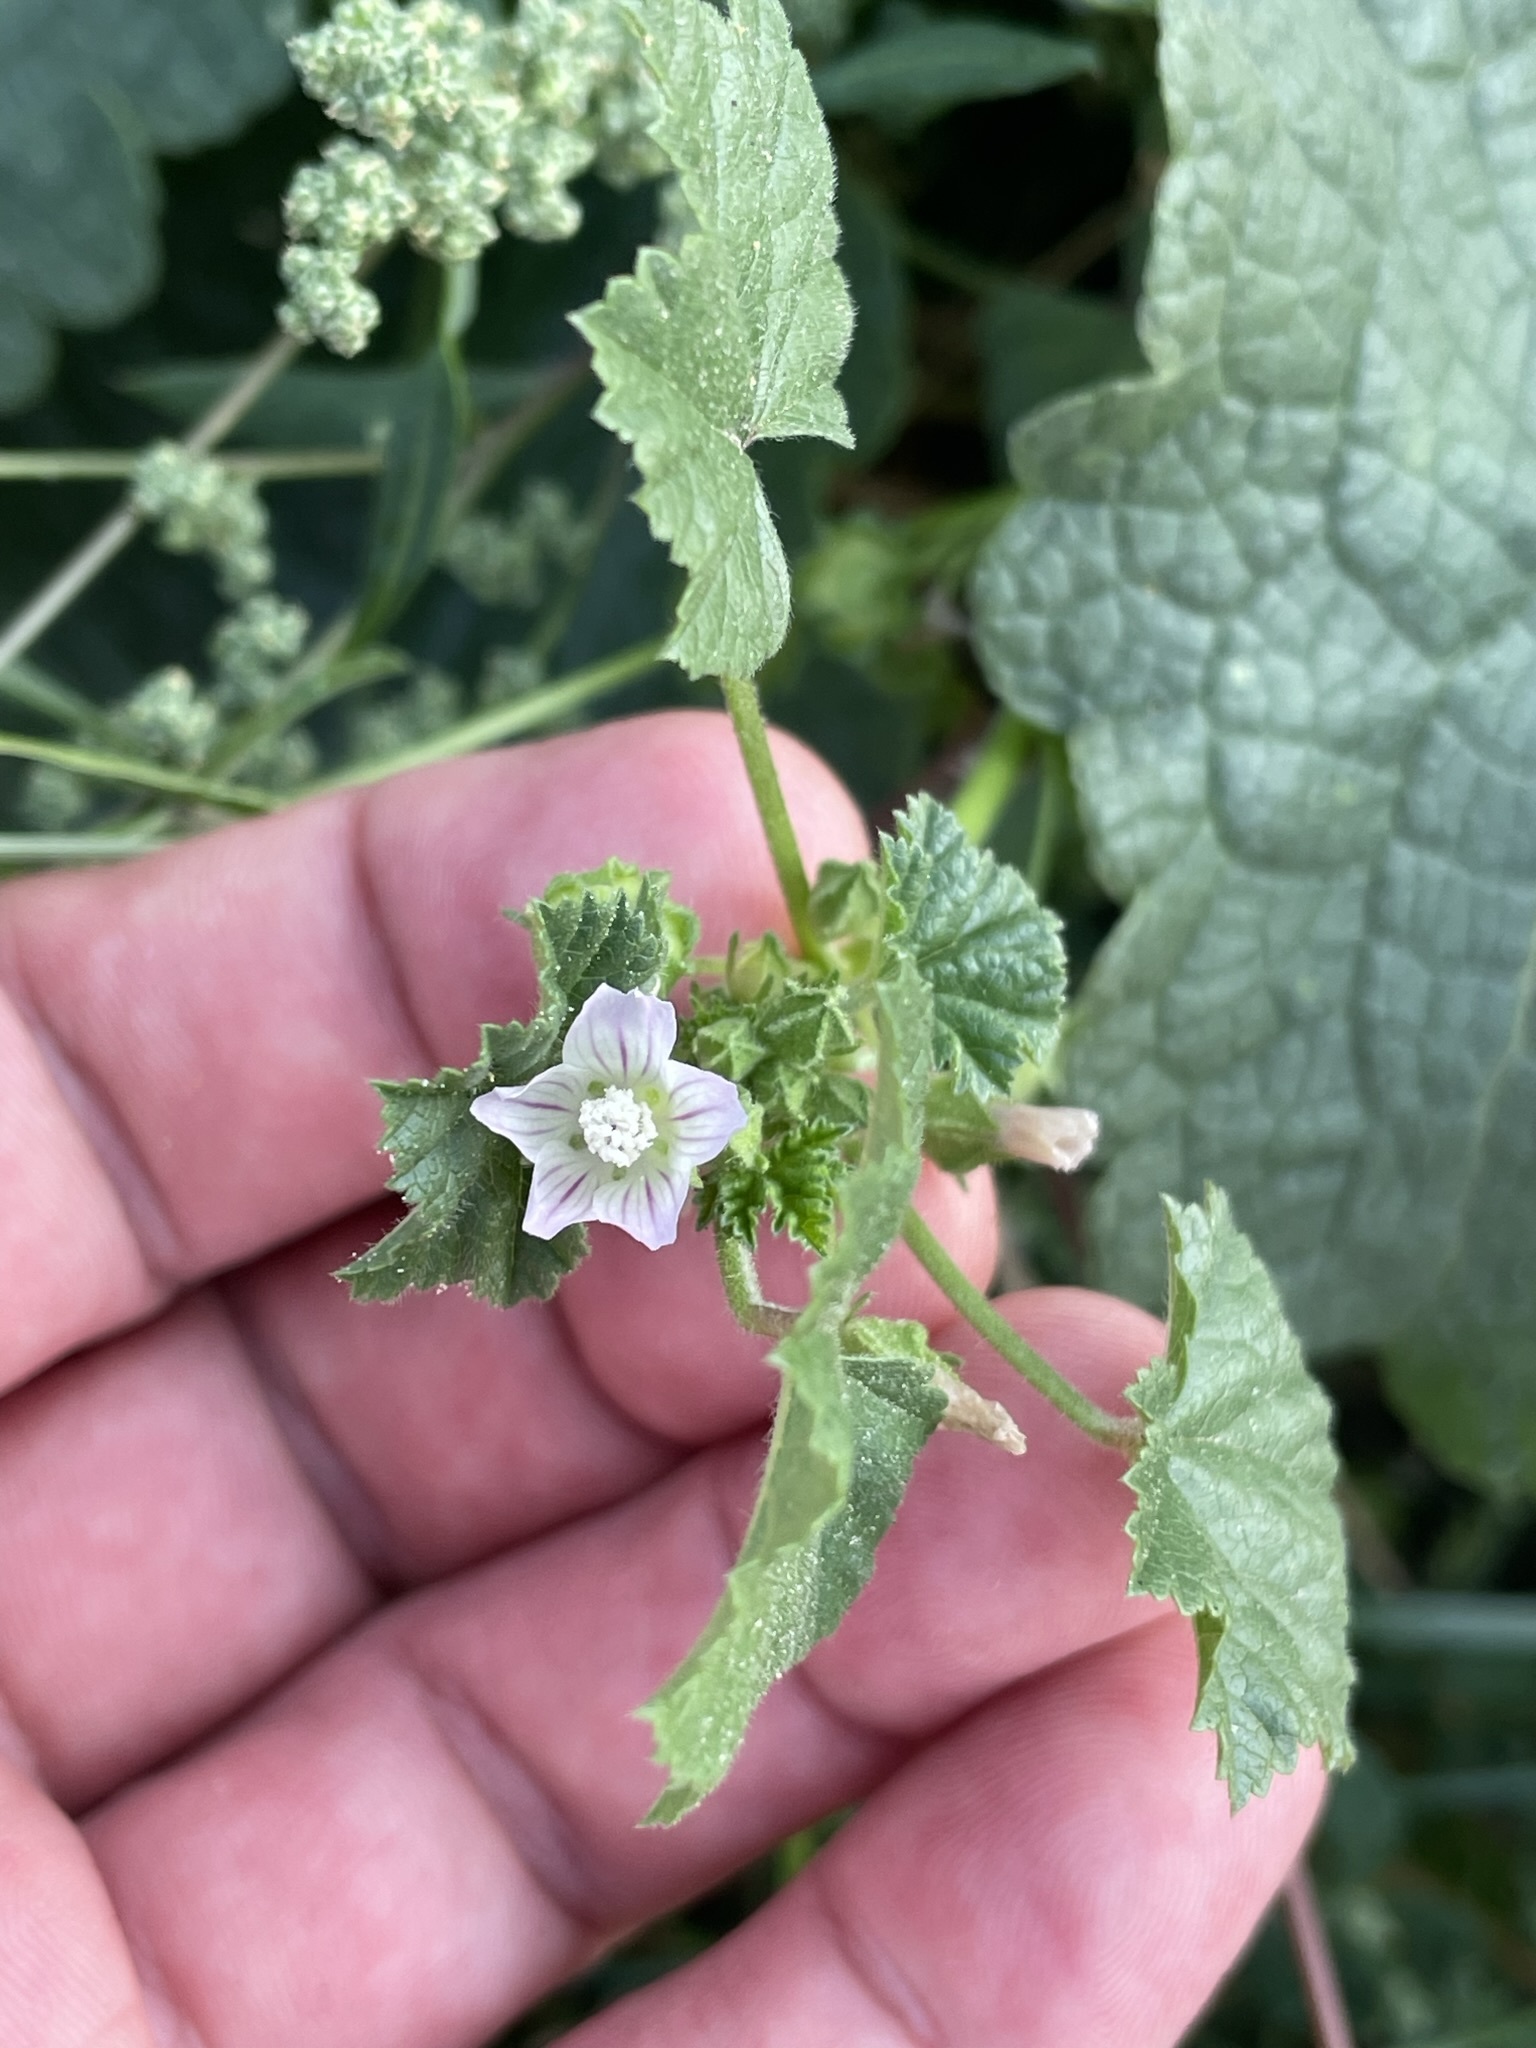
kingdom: Plantae
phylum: Tracheophyta
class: Magnoliopsida
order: Malvales
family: Malvaceae
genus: Malva
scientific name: Malva neglecta
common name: Common mallow
